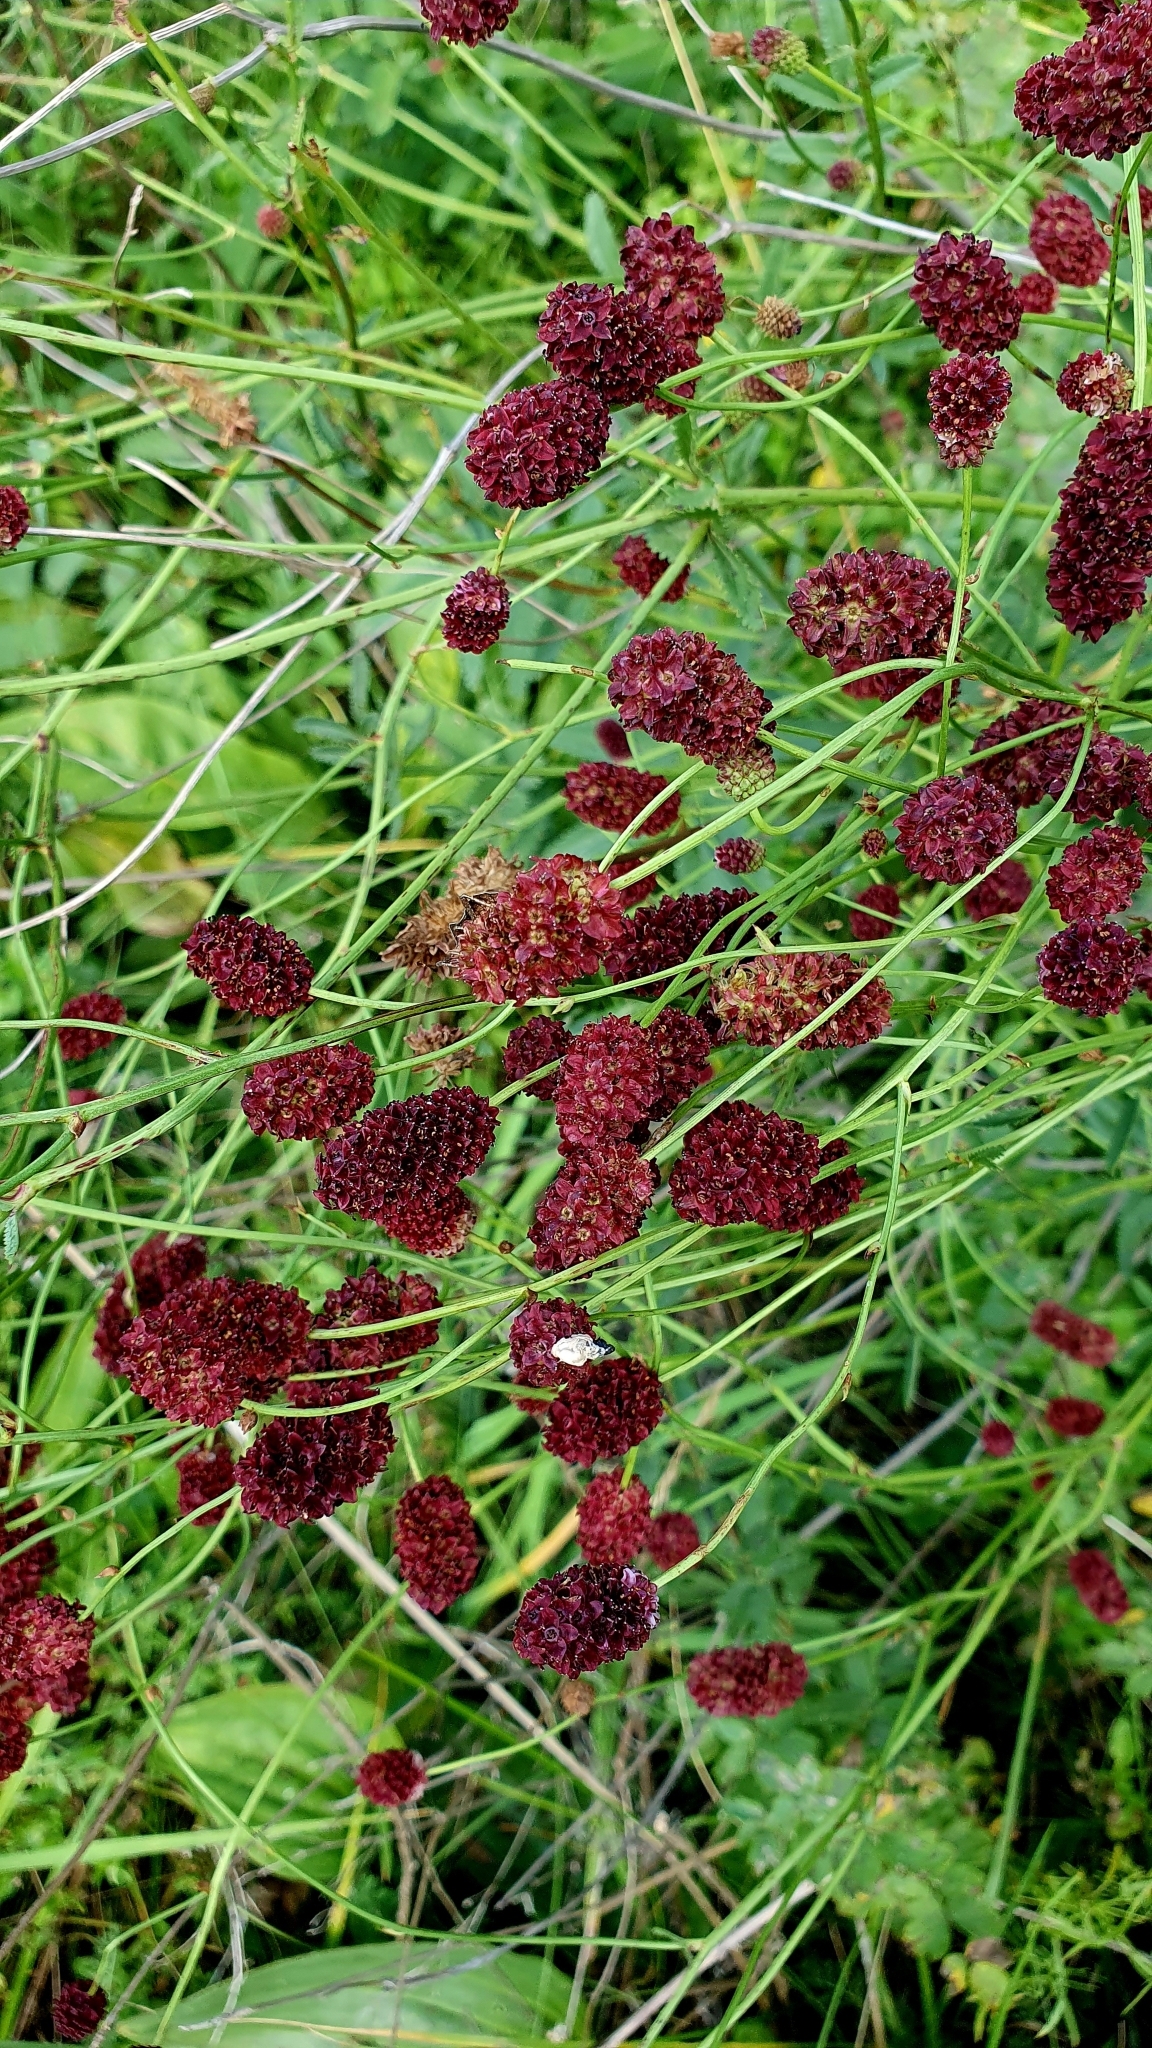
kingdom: Plantae
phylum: Tracheophyta
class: Magnoliopsida
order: Rosales
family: Rosaceae
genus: Sanguisorba
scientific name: Sanguisorba officinalis
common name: Great burnet
